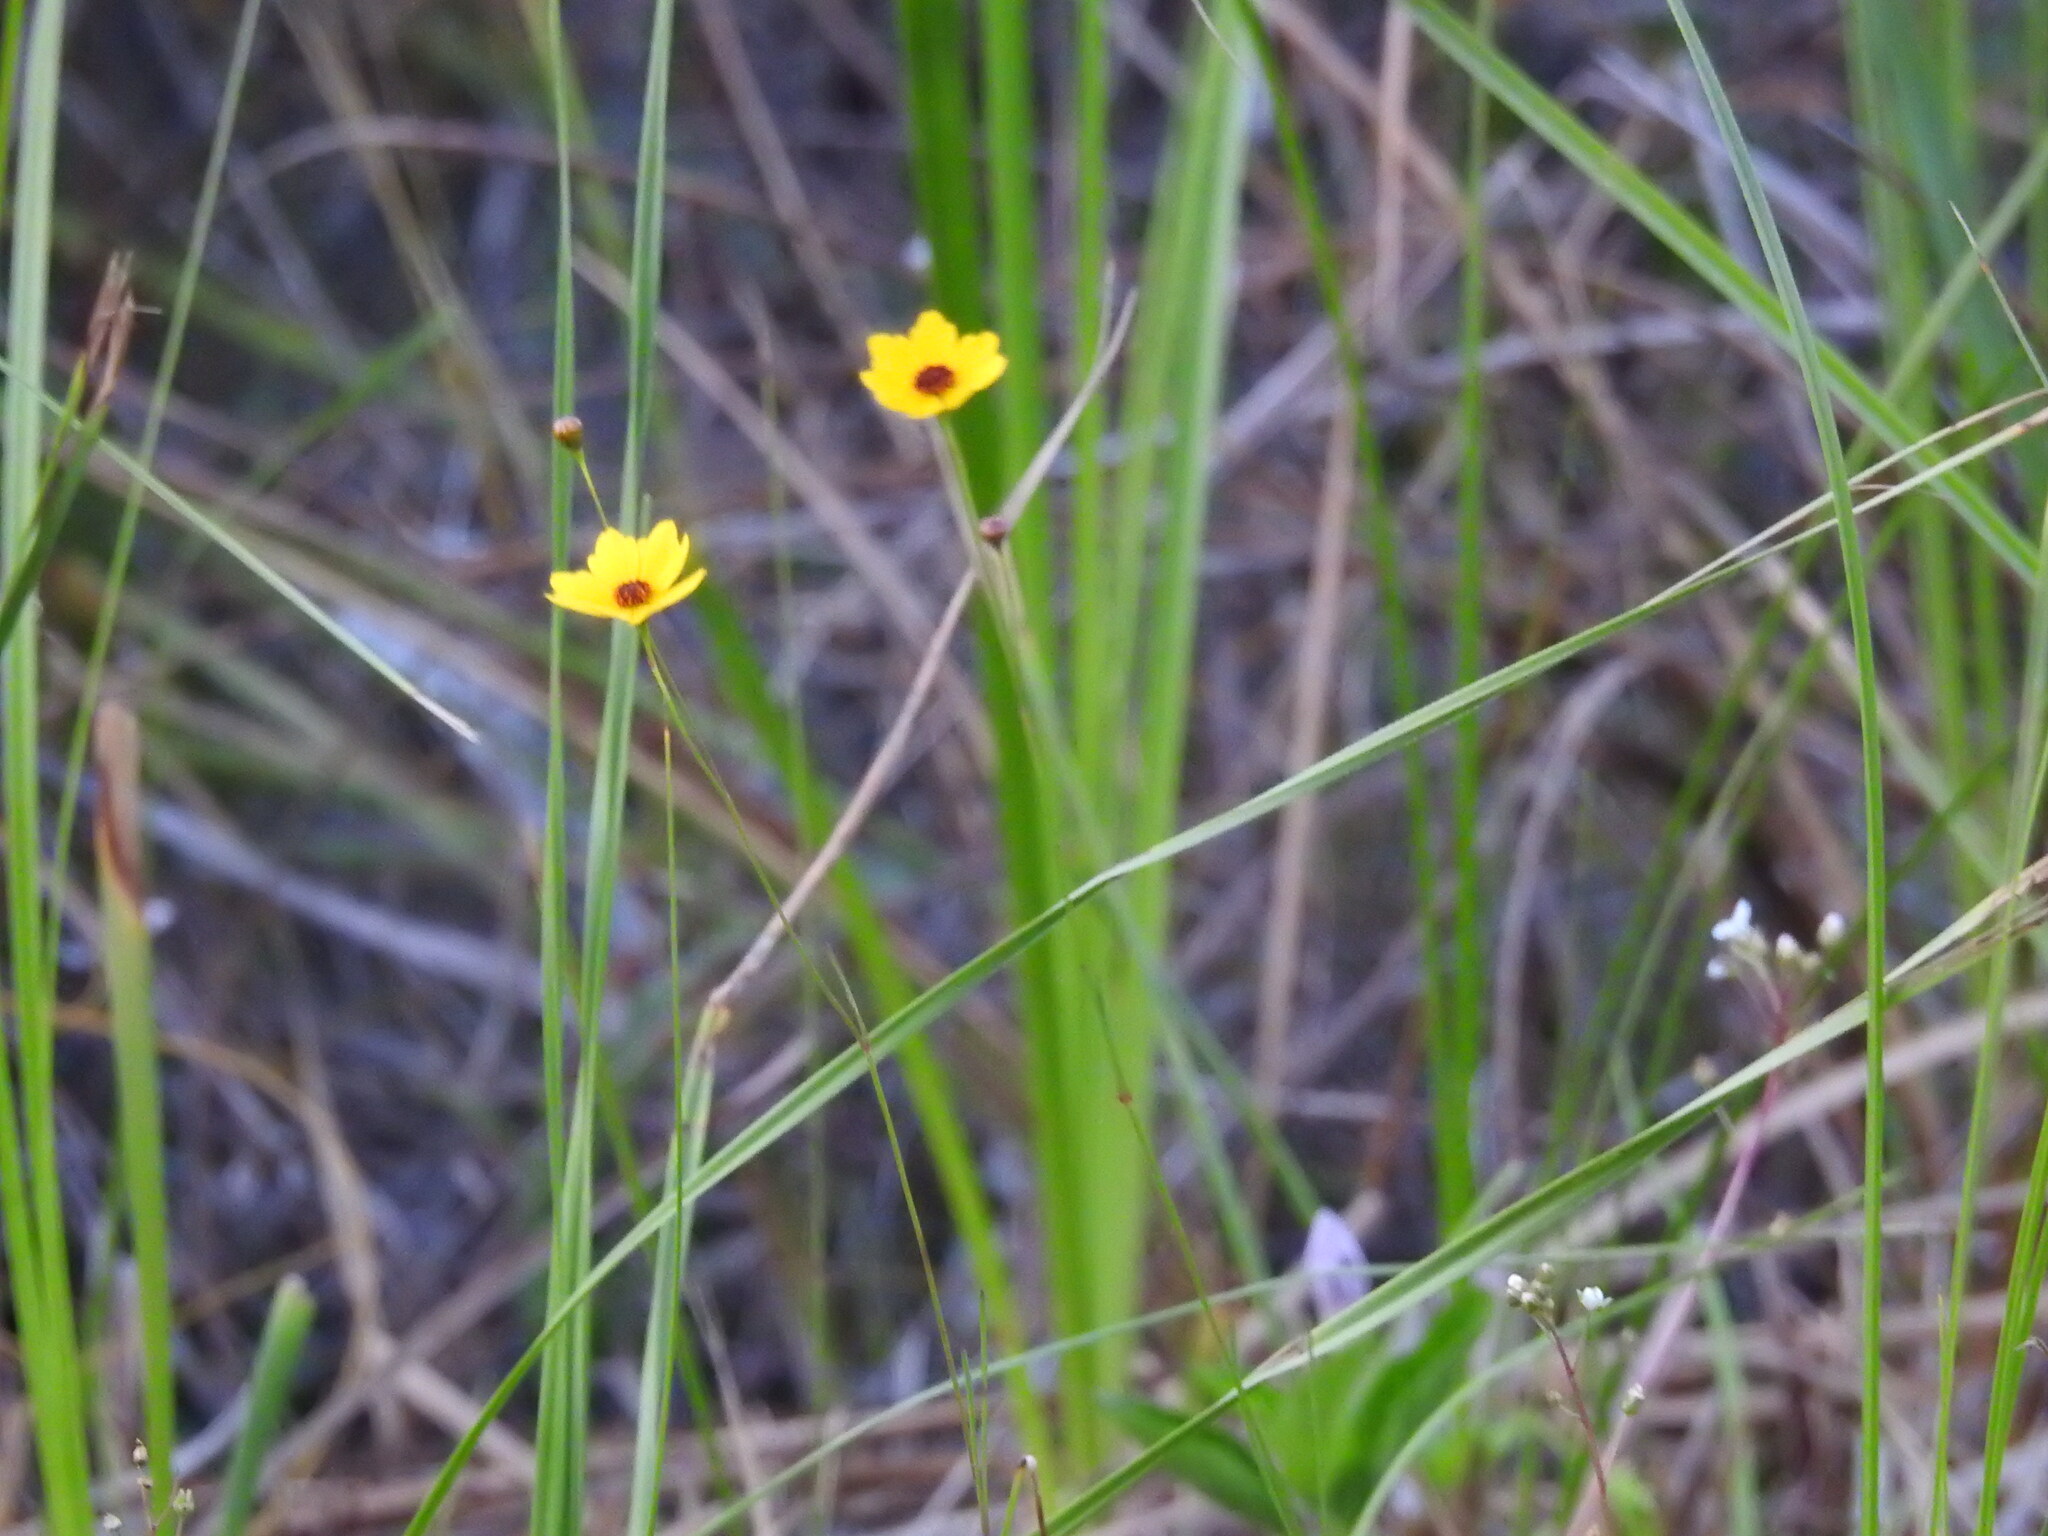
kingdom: Plantae
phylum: Tracheophyta
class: Magnoliopsida
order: Asterales
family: Asteraceae
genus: Coreopsis
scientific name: Coreopsis leavenworthii
